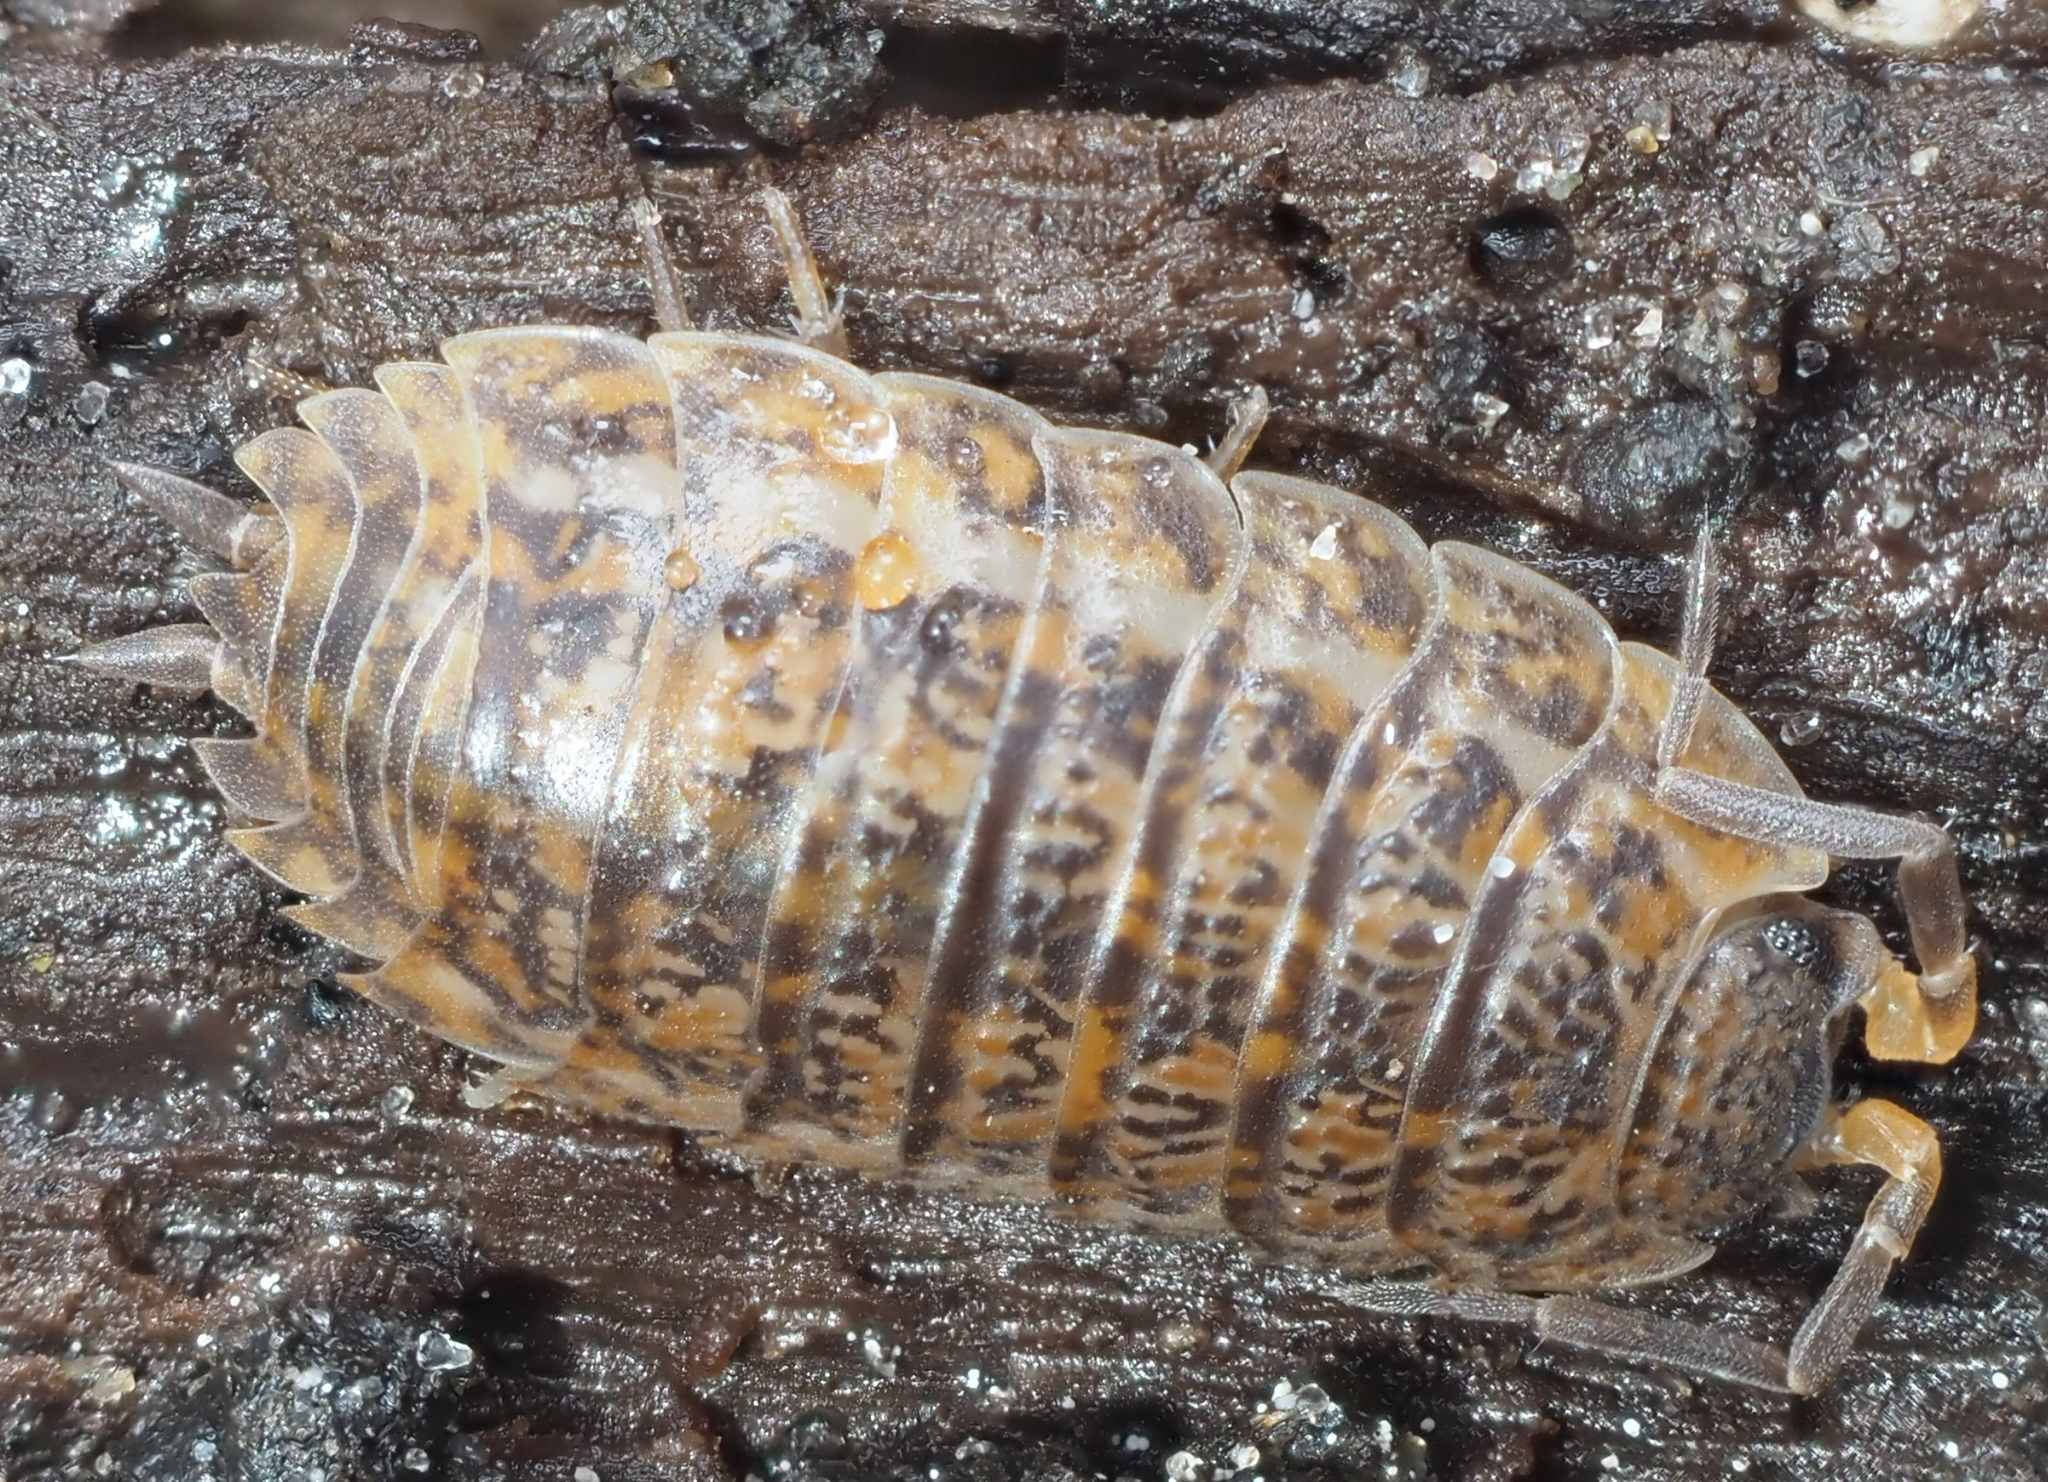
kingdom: Animalia
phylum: Arthropoda
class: Malacostraca
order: Isopoda
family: Trachelipodidae
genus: Trachelipus
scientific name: Trachelipus rathkii
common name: Isopod
